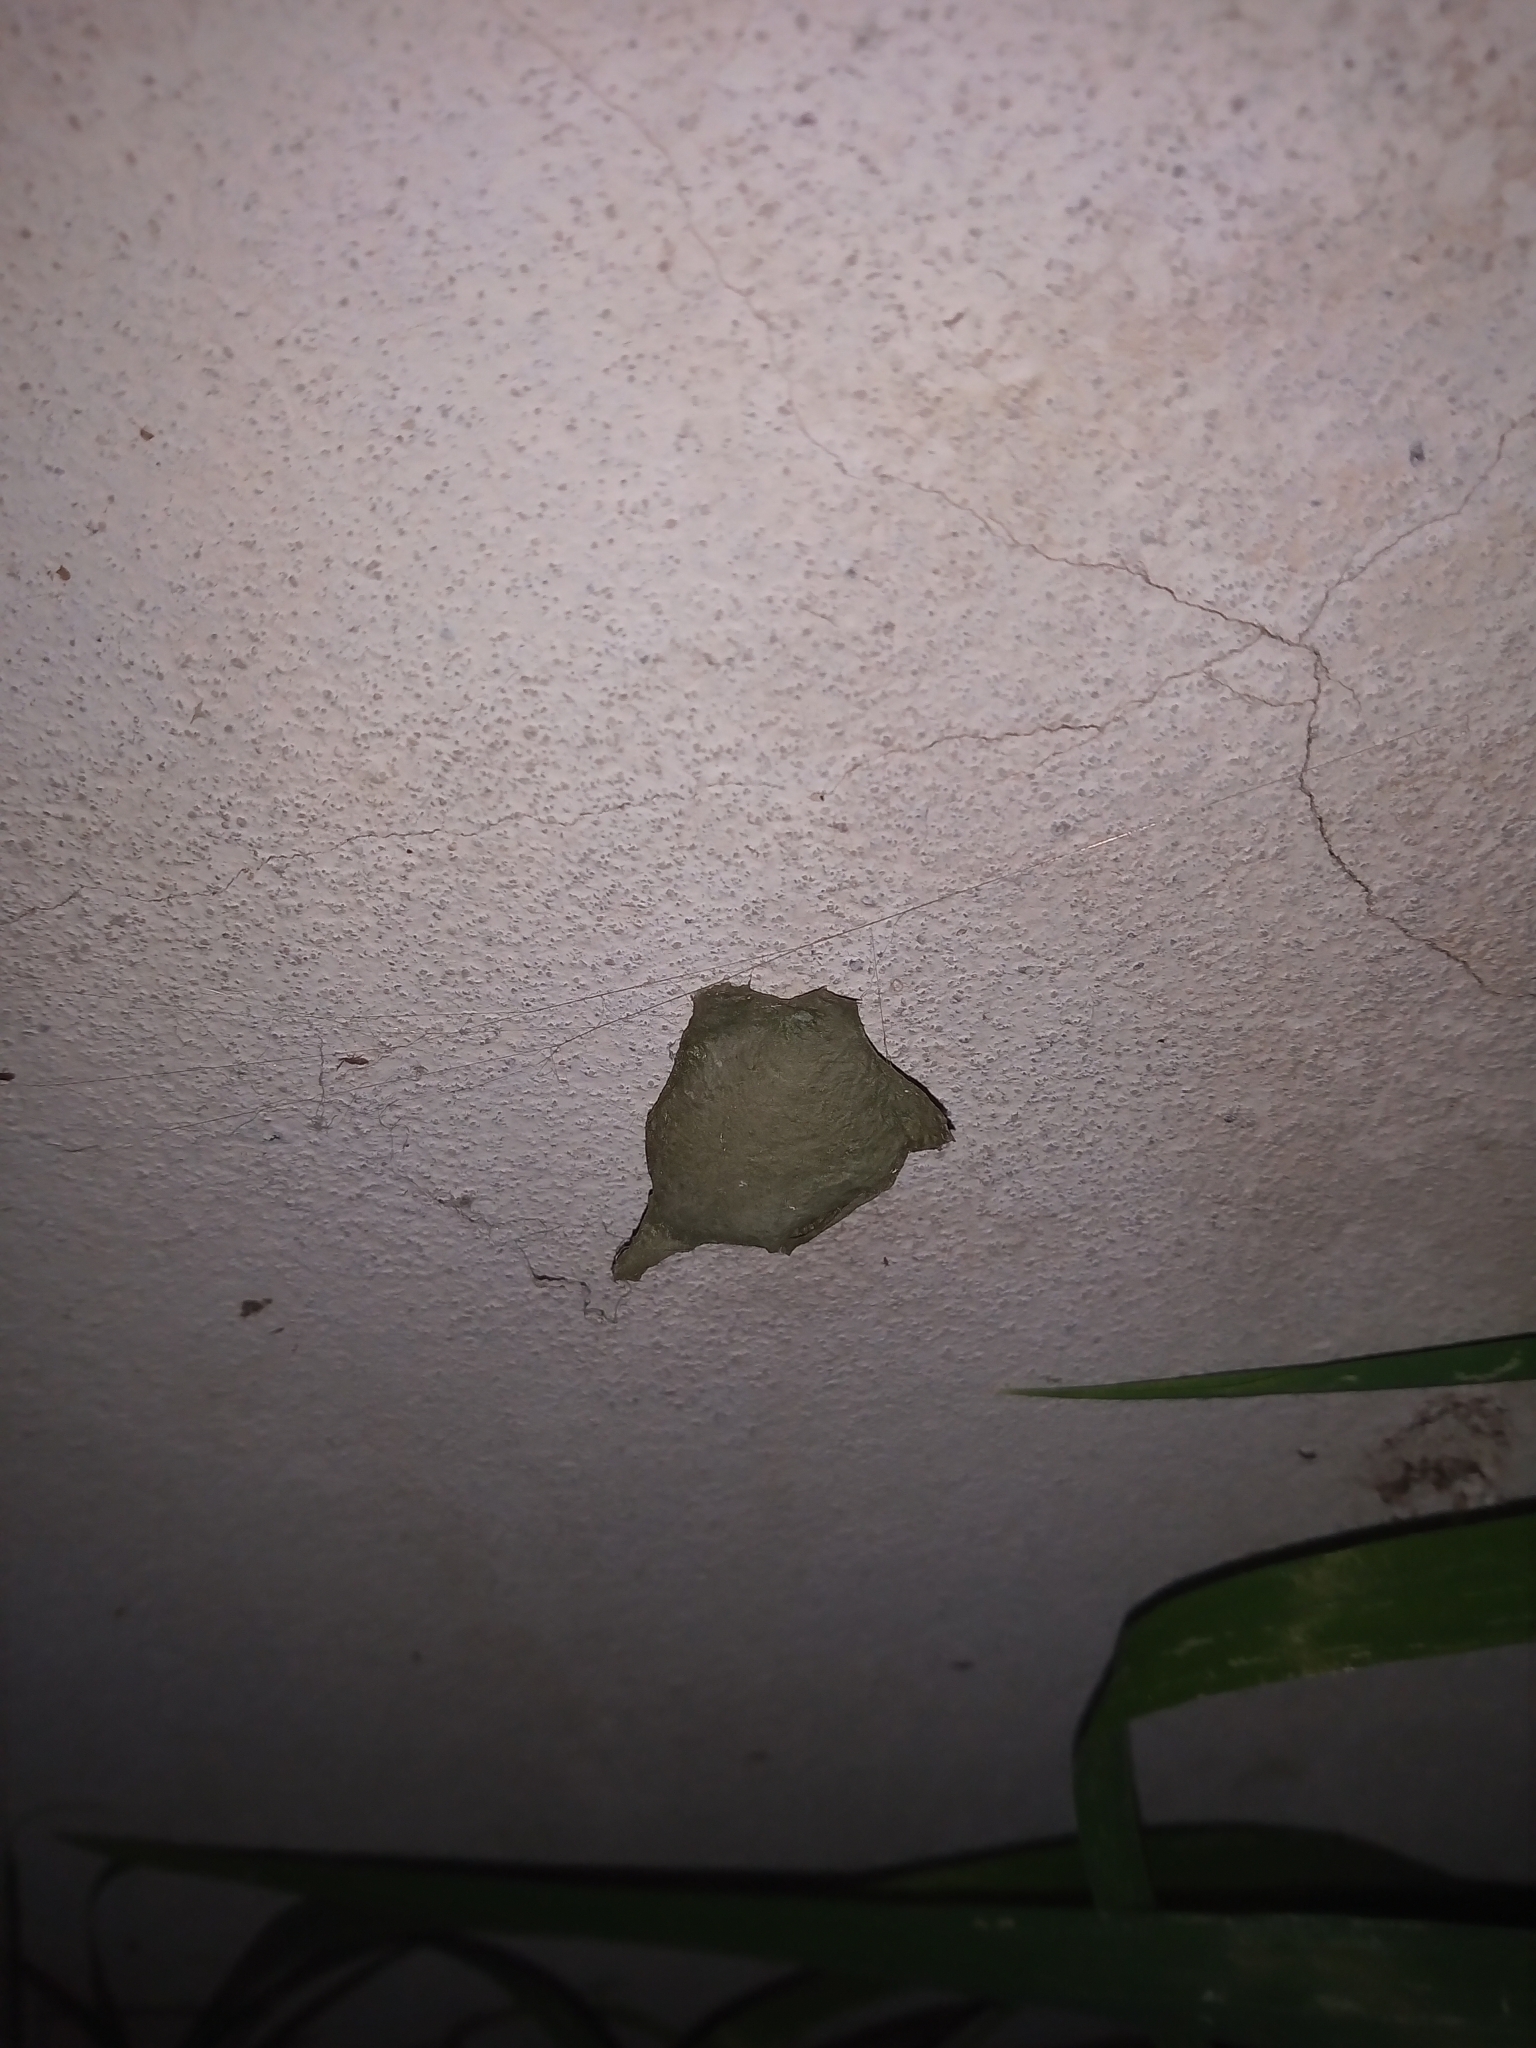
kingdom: Animalia
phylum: Arthropoda
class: Arachnida
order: Araneae
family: Araneidae
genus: Argiope
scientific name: Argiope argentata
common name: Orb weavers
